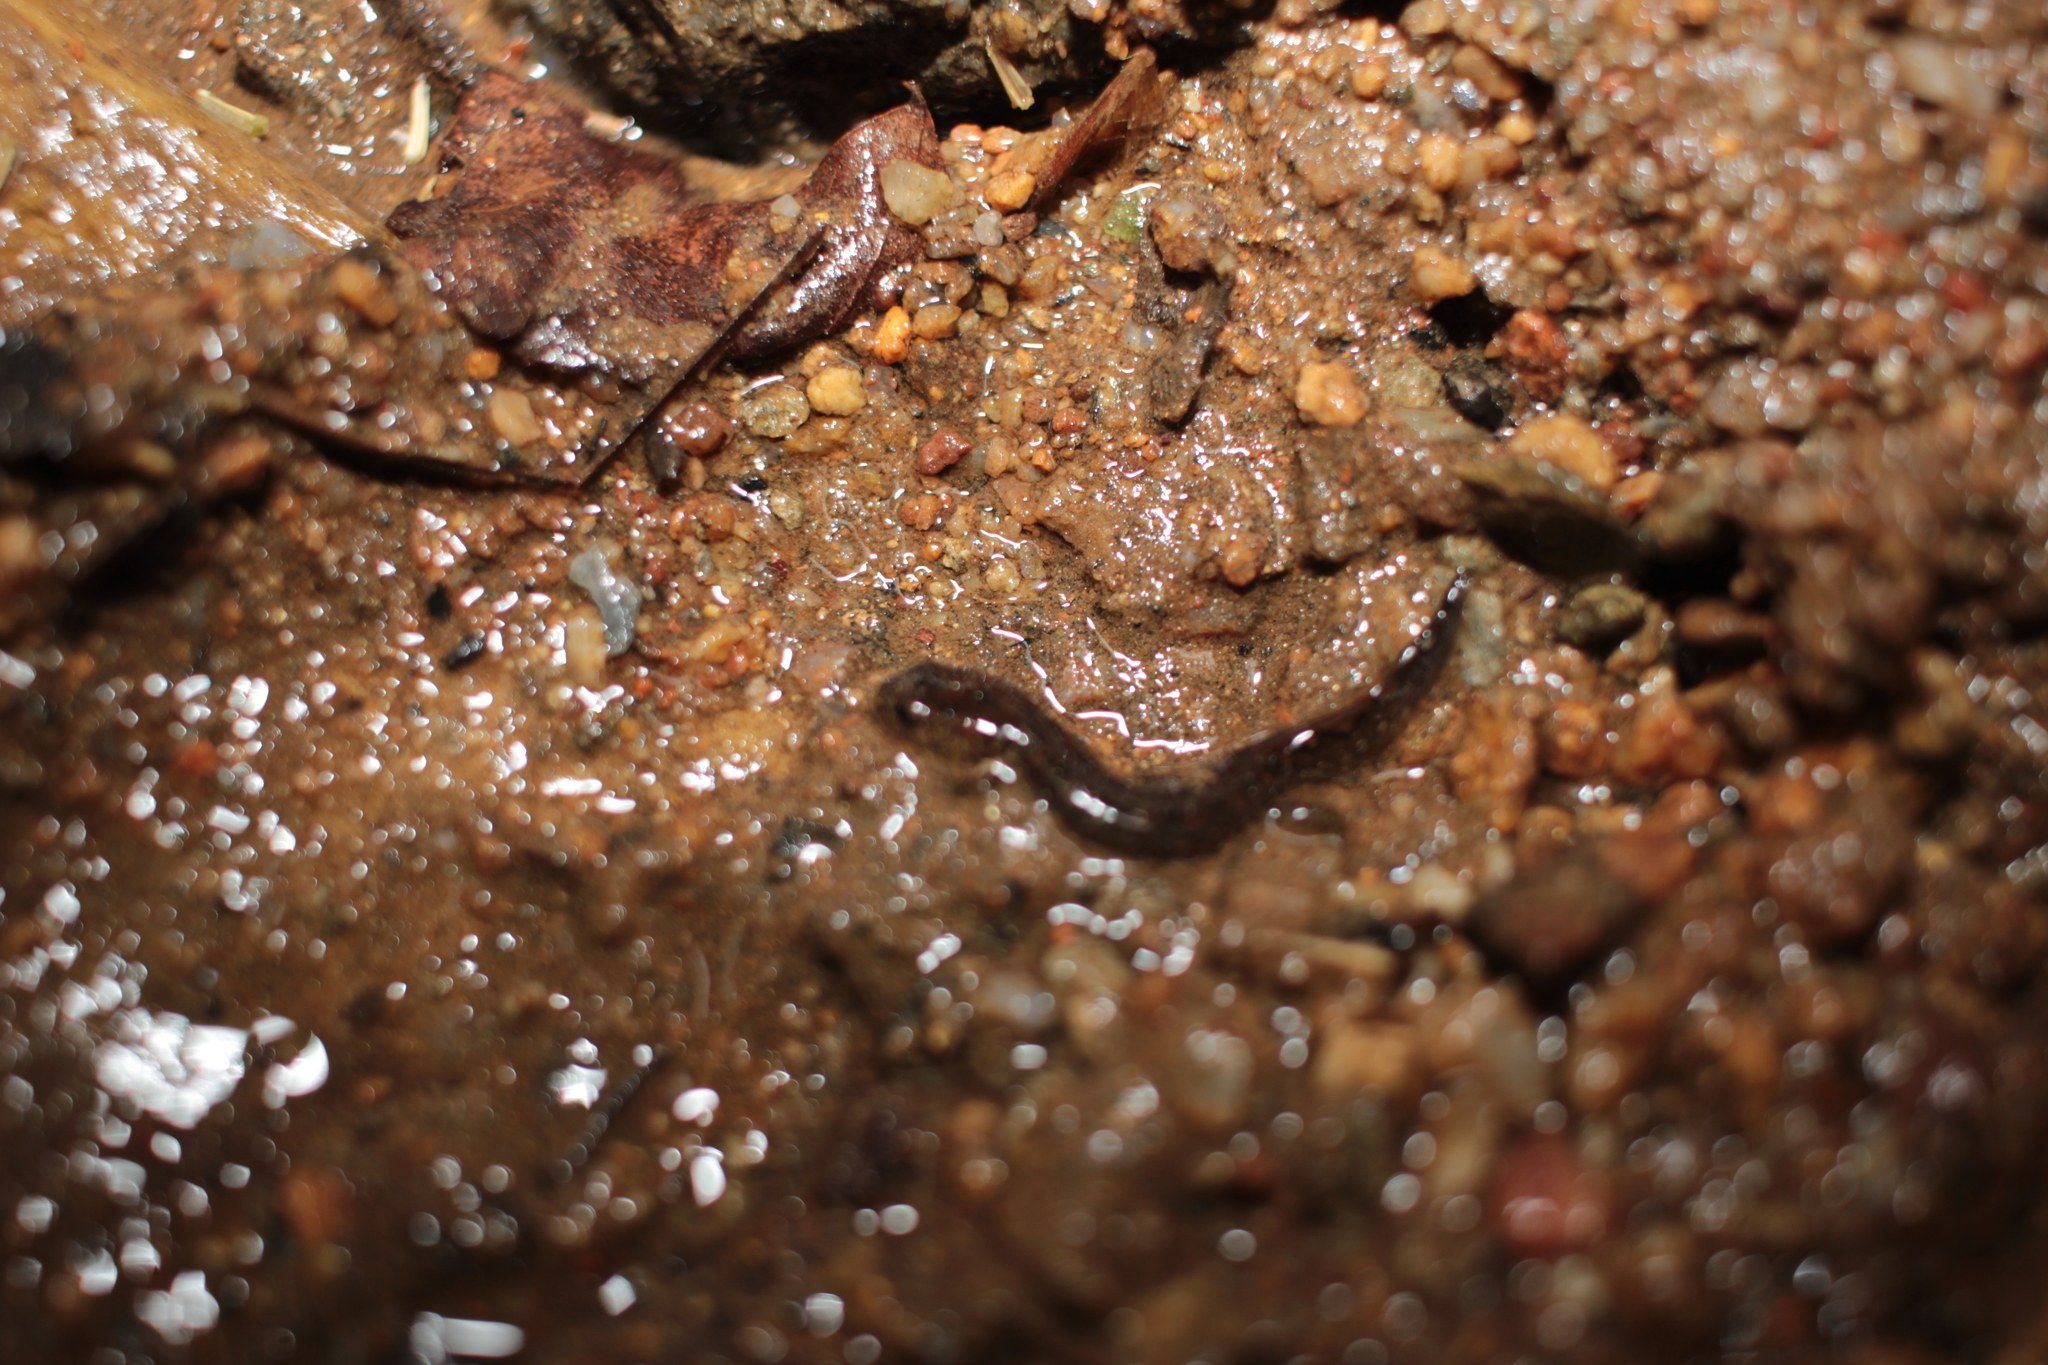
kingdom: Animalia
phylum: Chordata
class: Amphibia
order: Caudata
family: Plethodontidae
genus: Desmognathus
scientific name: Desmognathus planiceps
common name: Flat-headed salamander
